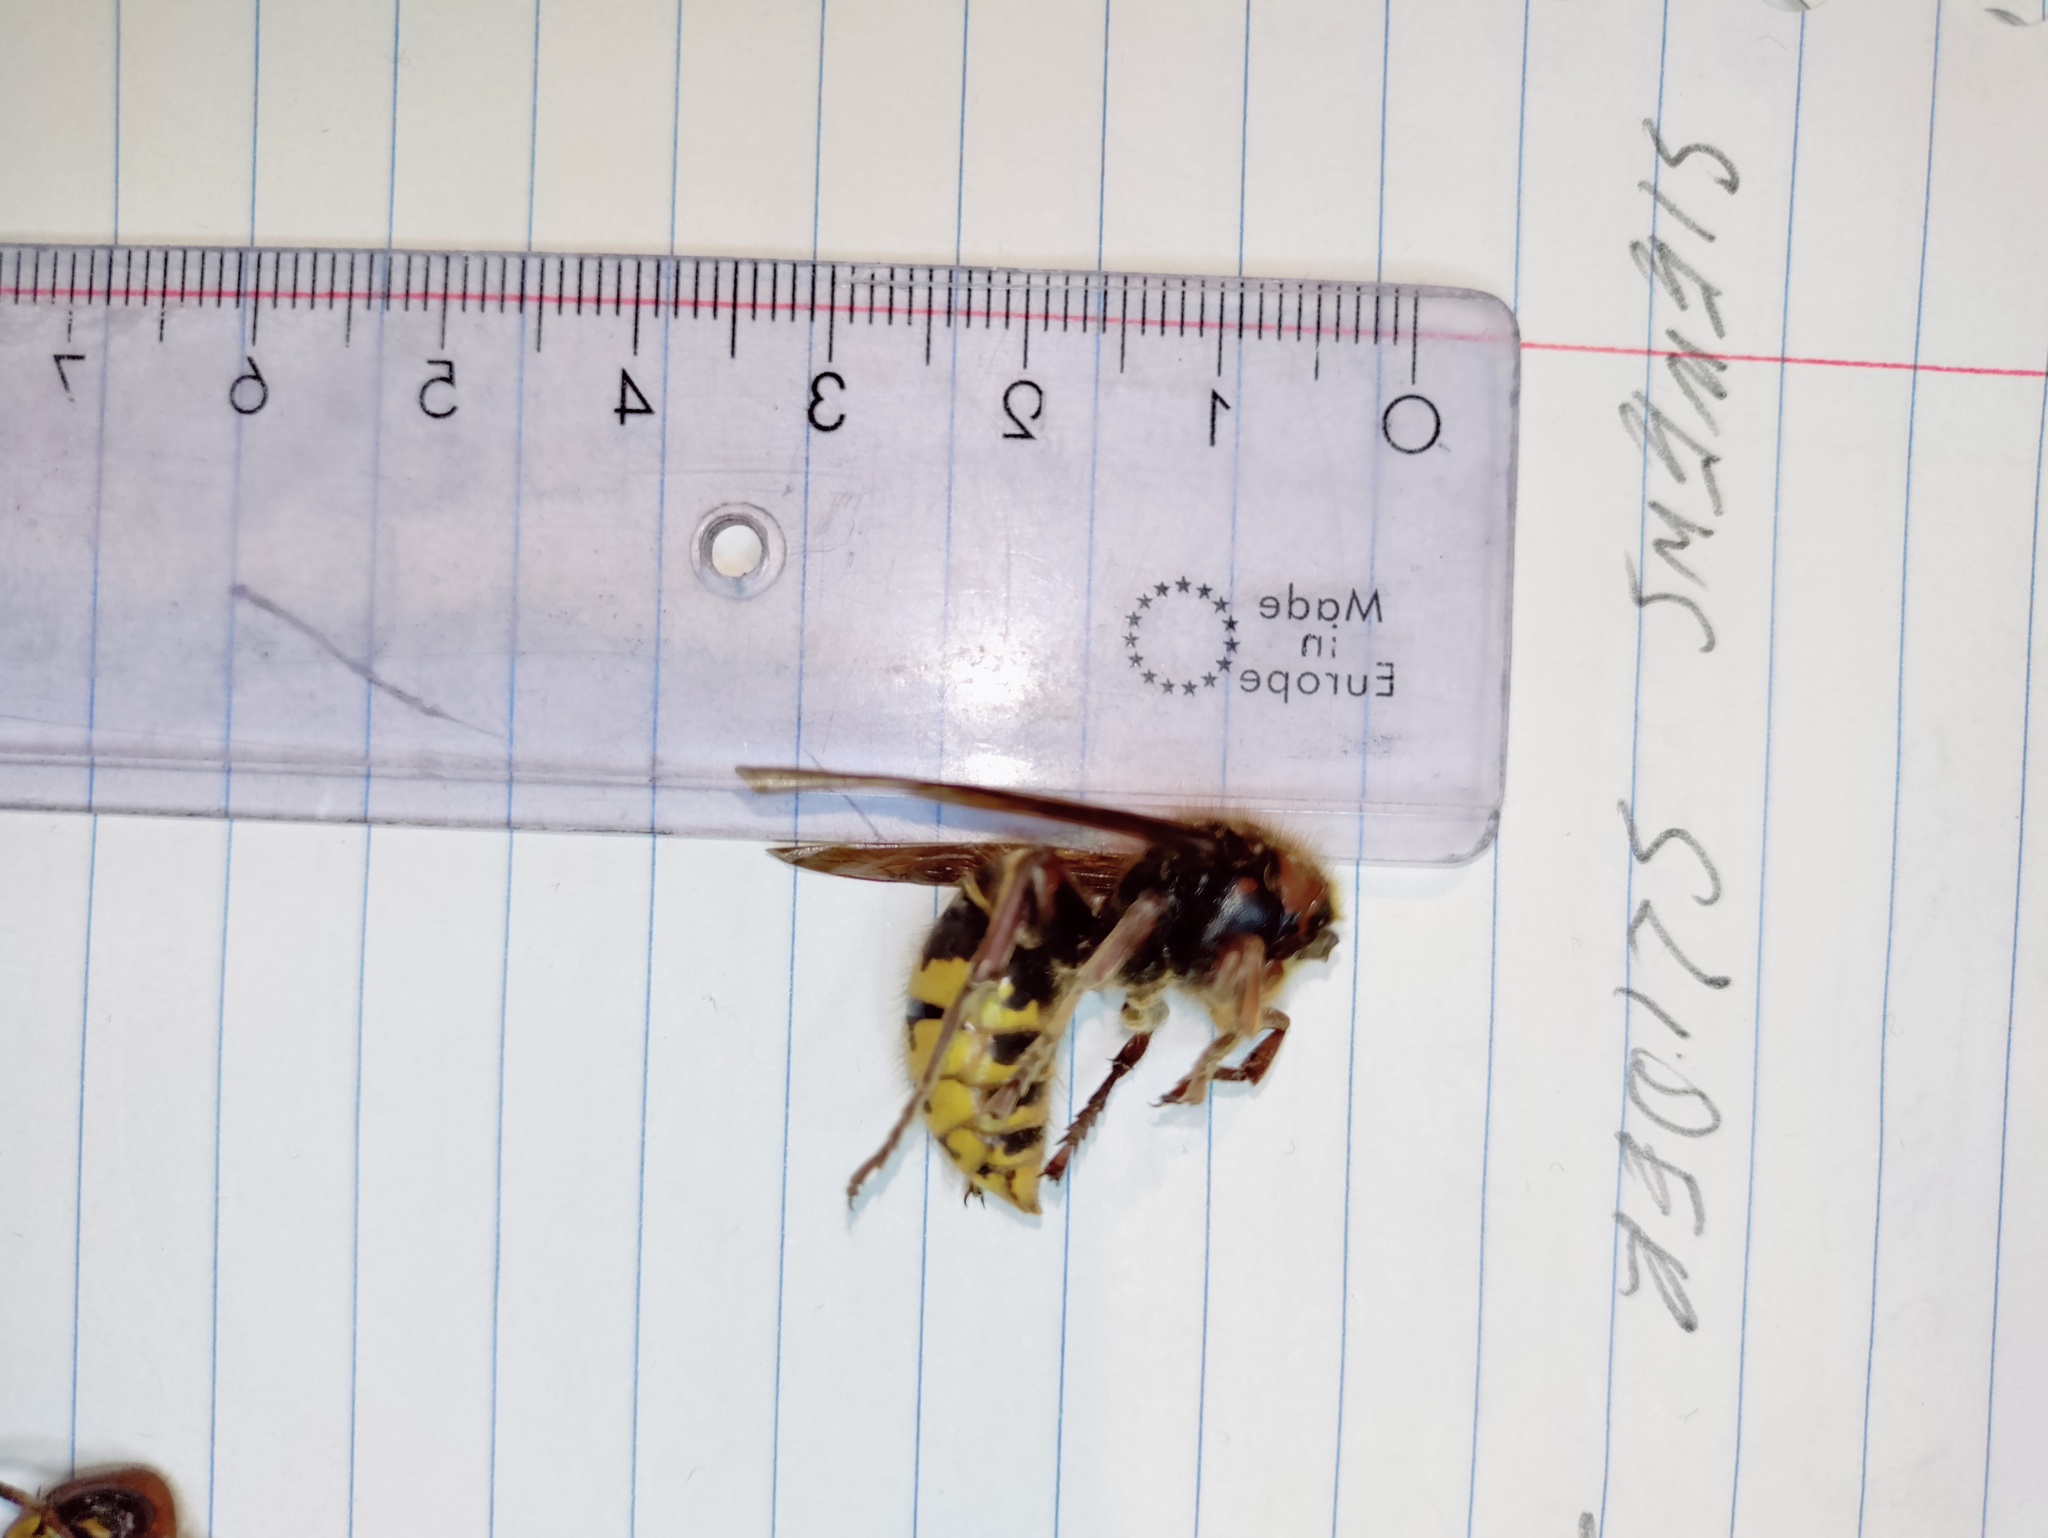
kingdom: Animalia
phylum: Arthropoda
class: Insecta
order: Hymenoptera
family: Vespidae
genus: Vespa
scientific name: Vespa crabro
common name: Hornet
